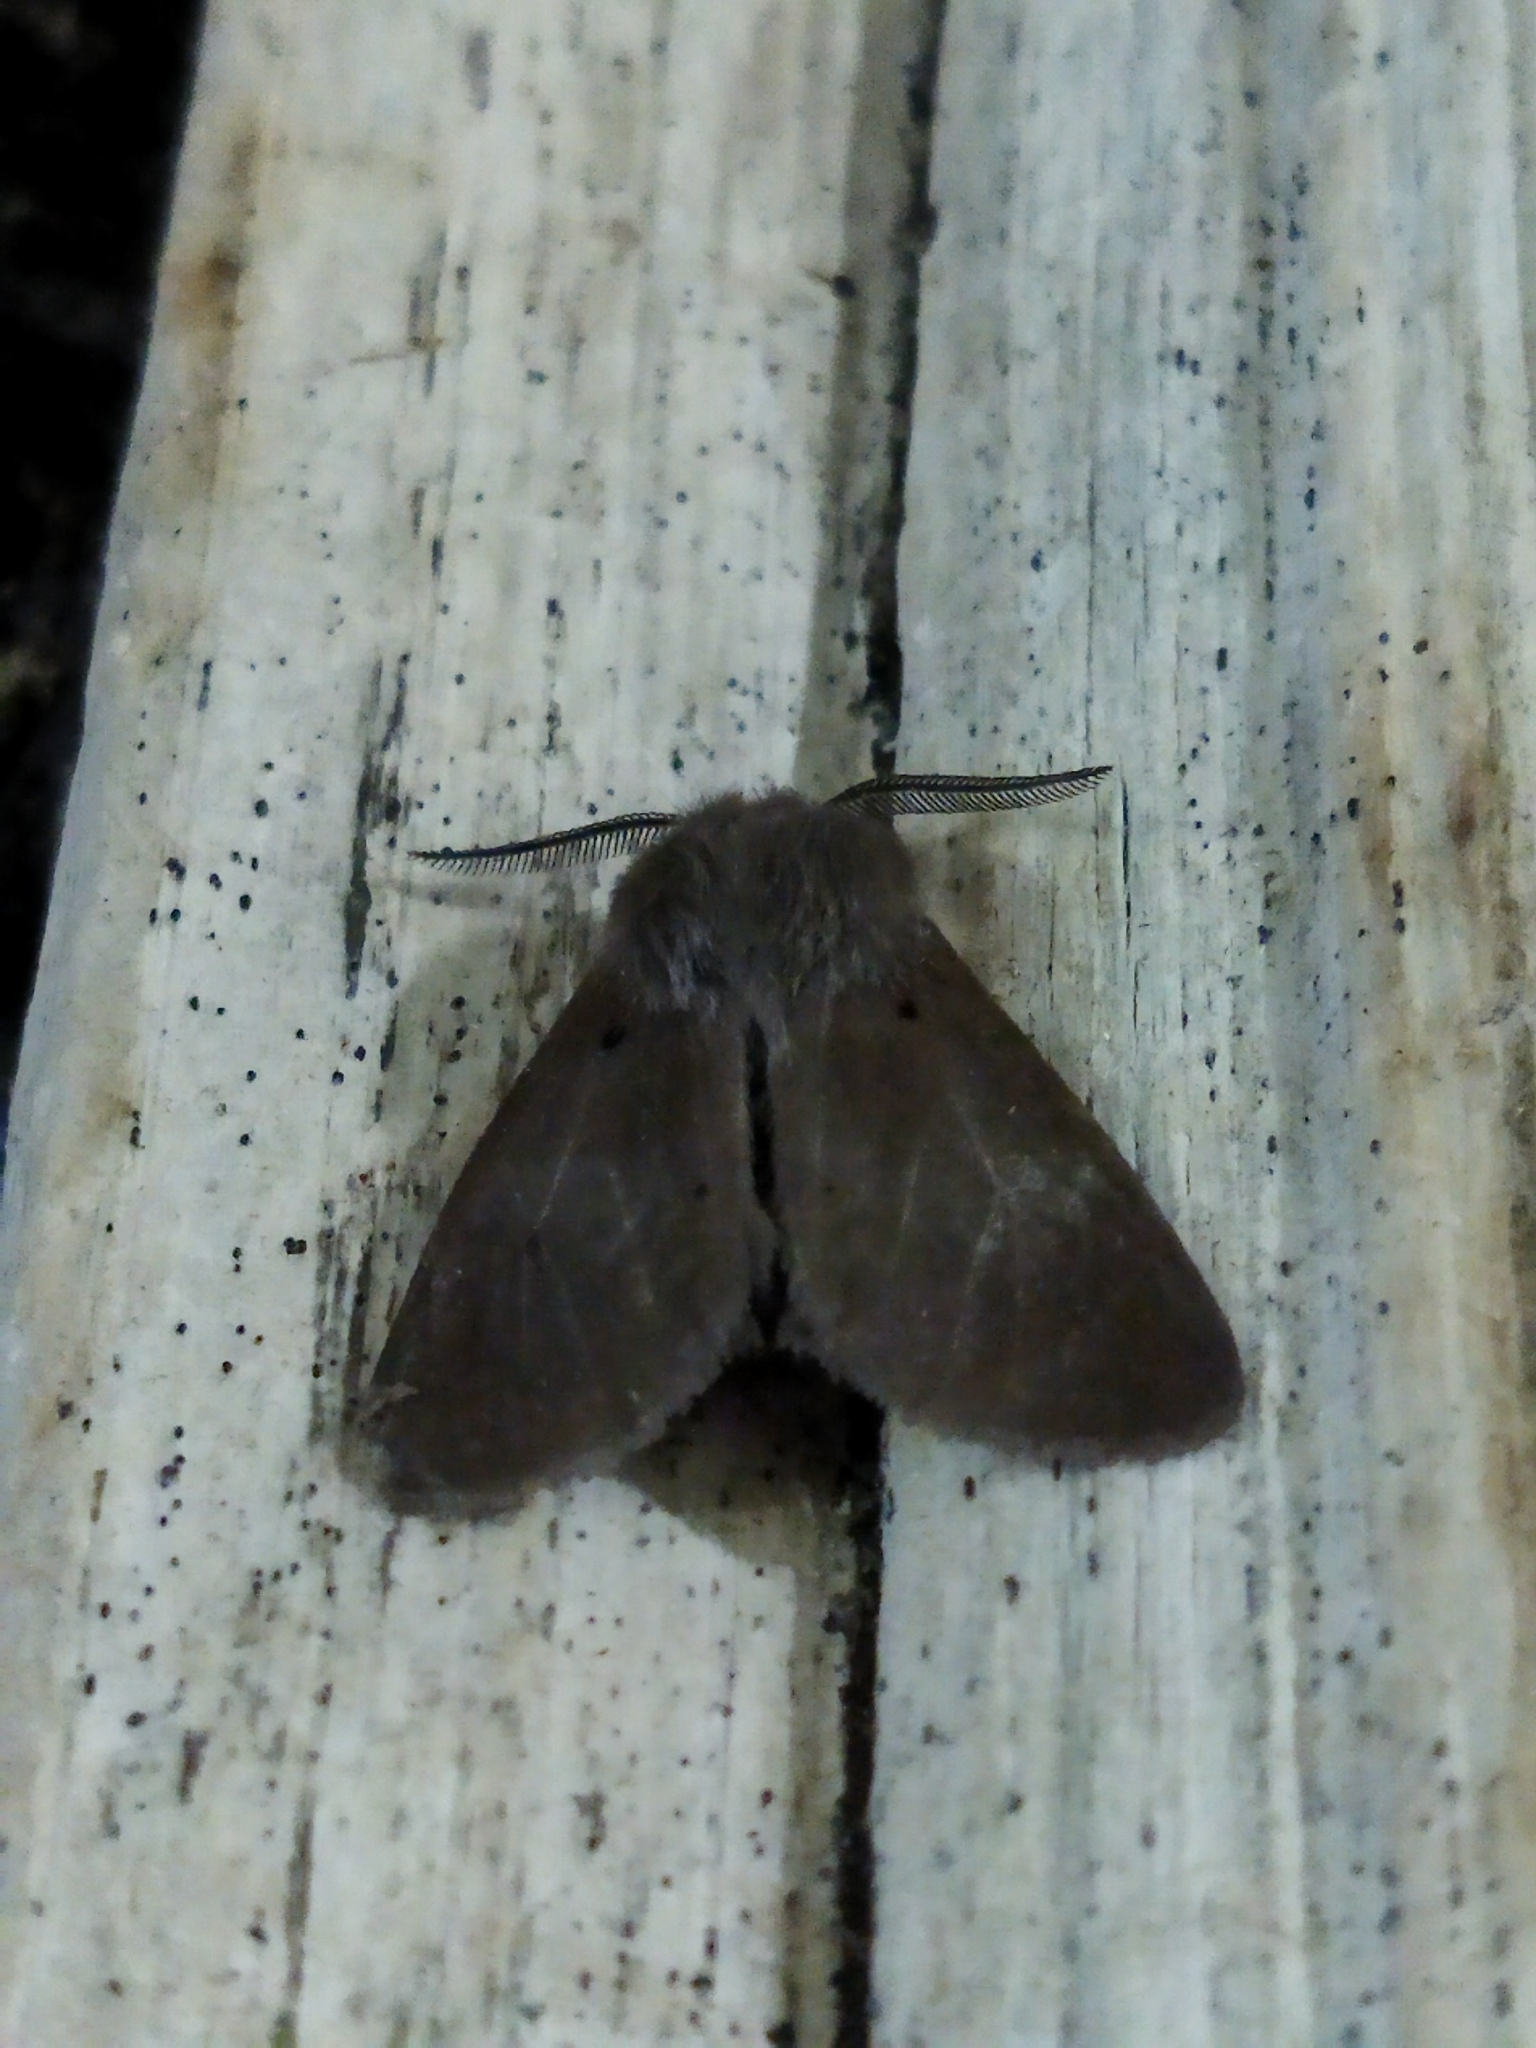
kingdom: Animalia
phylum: Arthropoda
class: Insecta
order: Lepidoptera
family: Erebidae
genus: Diaphora
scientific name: Diaphora mendica
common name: Muslin moth
